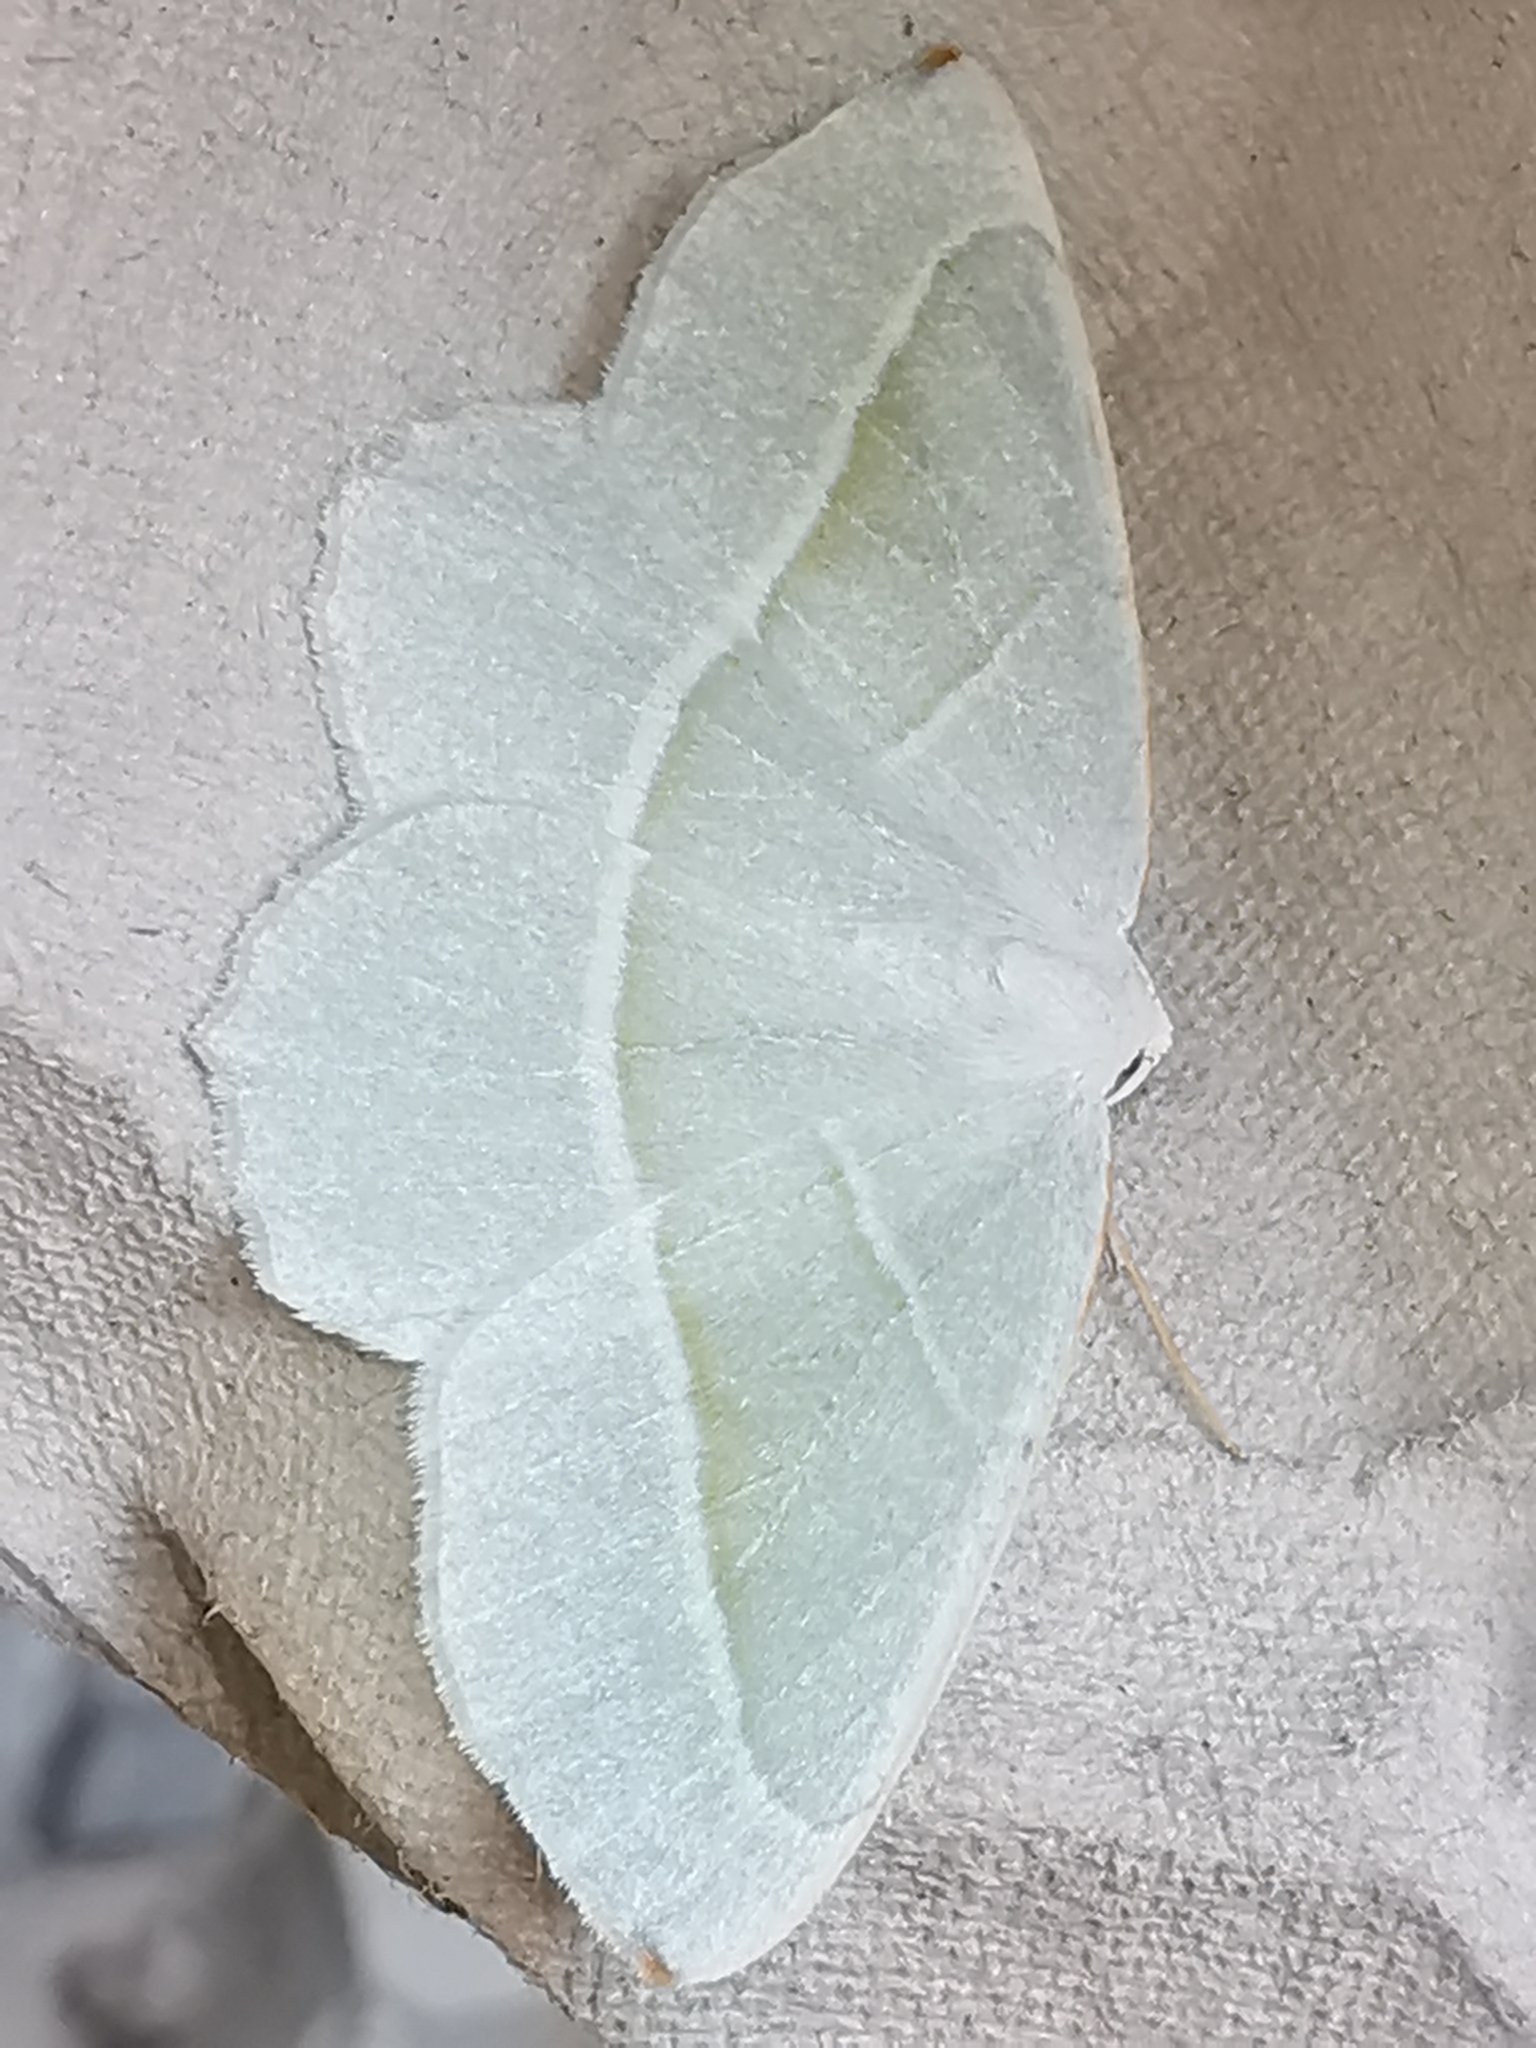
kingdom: Animalia
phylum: Arthropoda
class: Insecta
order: Lepidoptera
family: Geometridae
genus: Campaea
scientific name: Campaea margaritaria
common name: Light emerald
